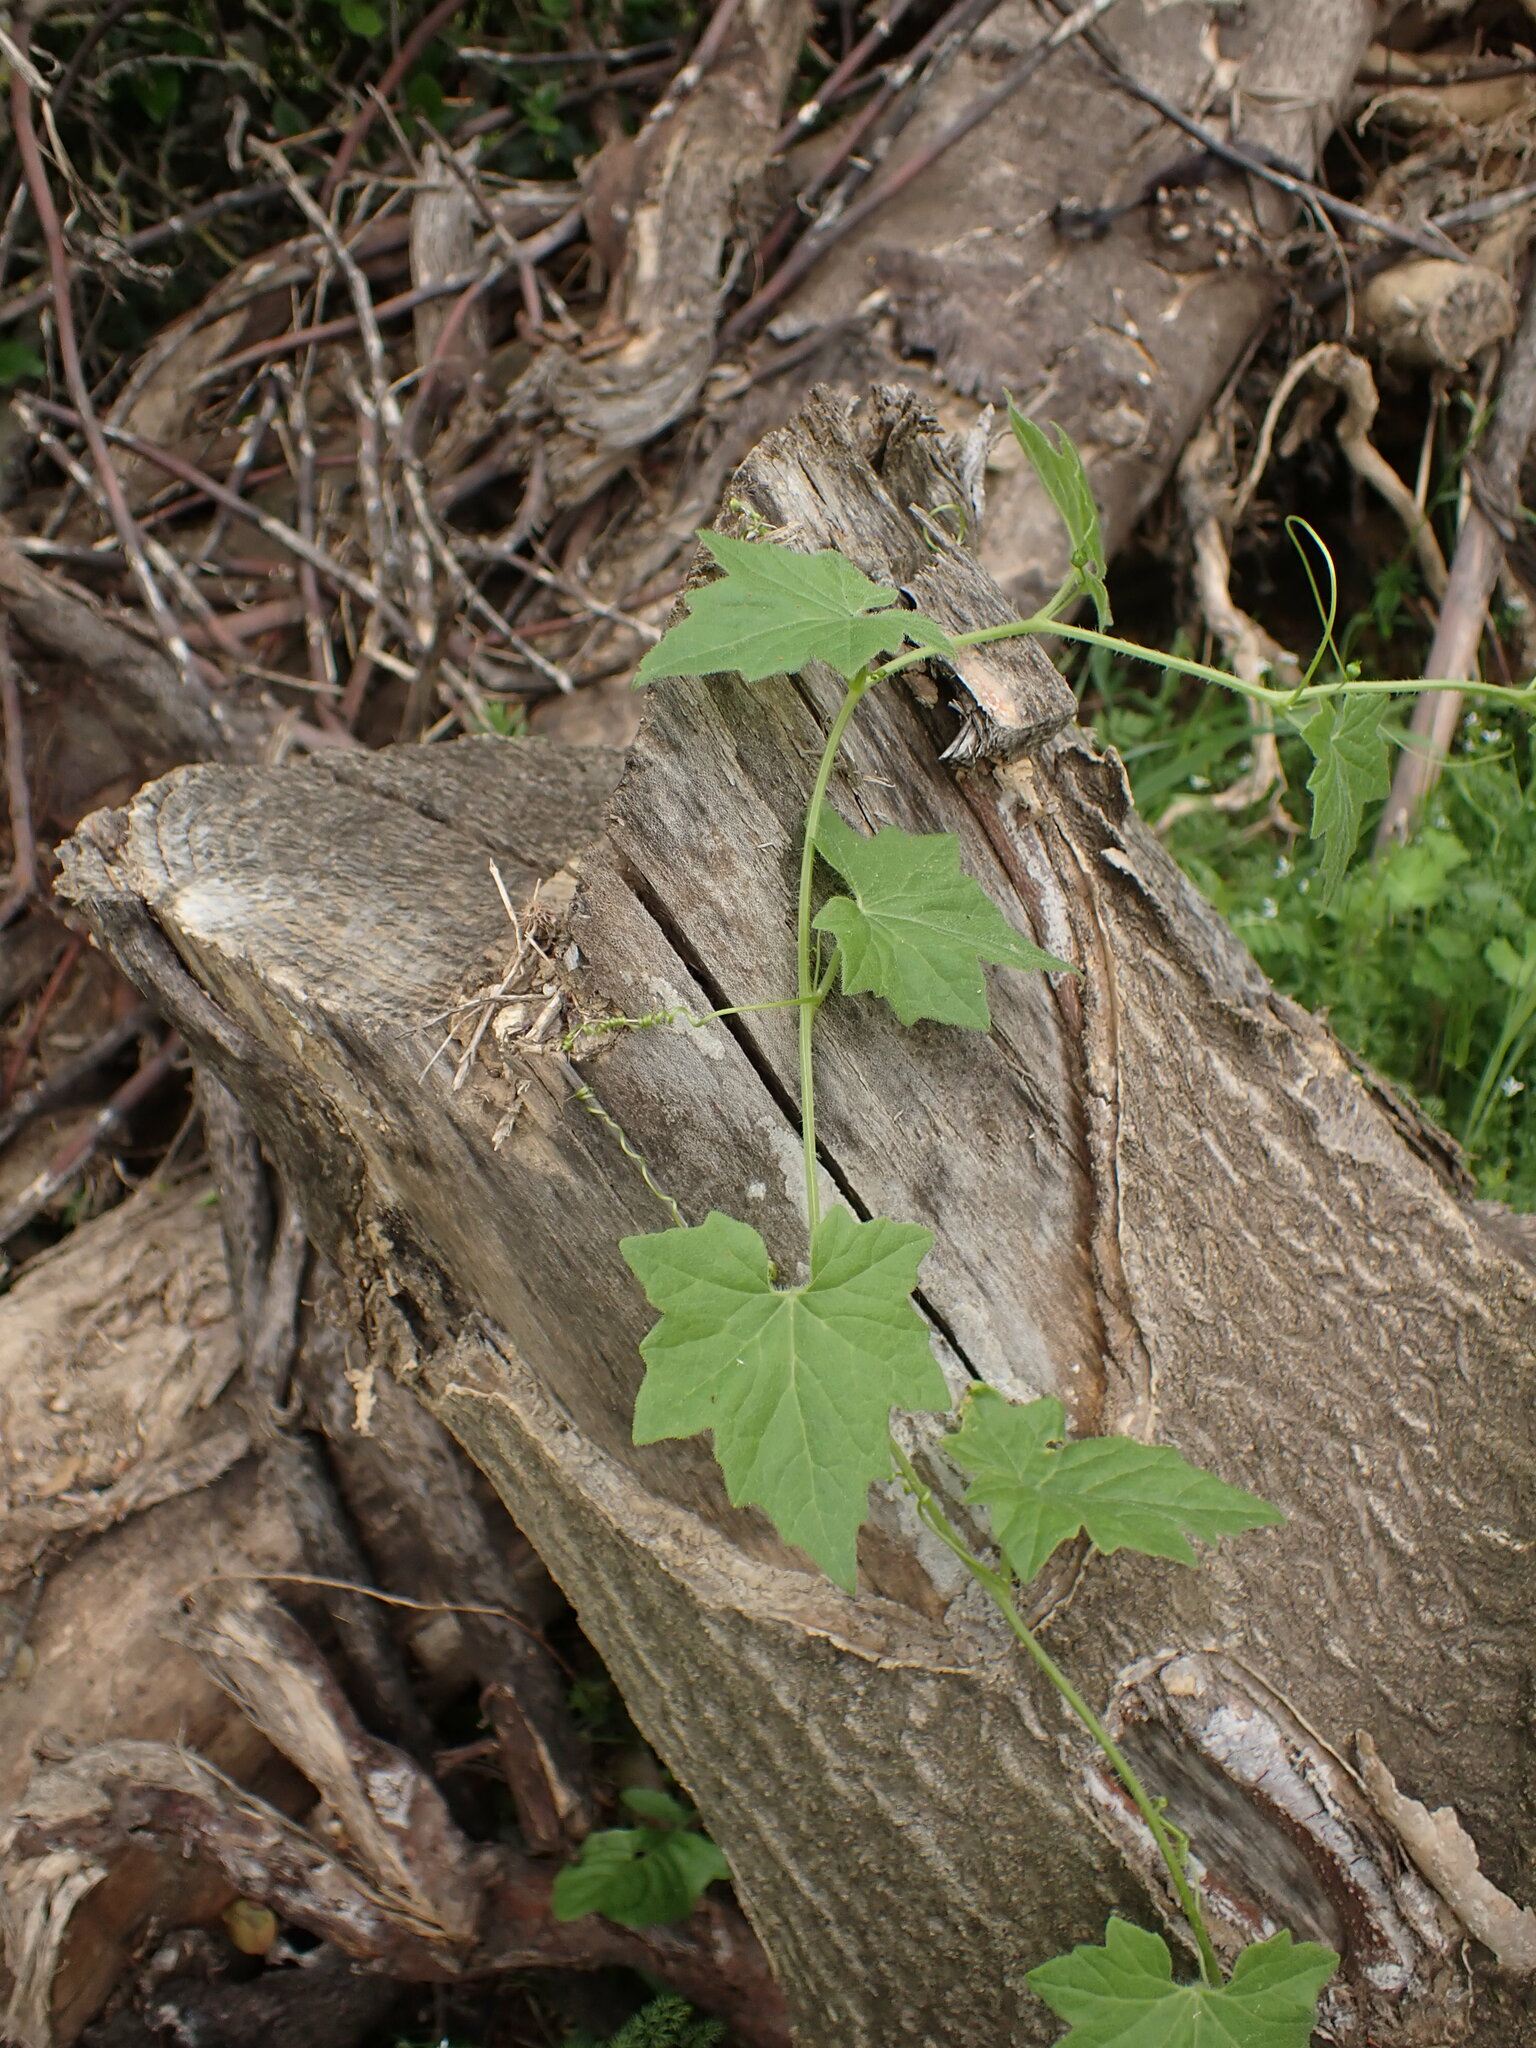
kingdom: Plantae
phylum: Tracheophyta
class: Magnoliopsida
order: Cucurbitales
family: Cucurbitaceae
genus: Bryonia
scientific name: Bryonia cretica
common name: Cretan bryony
